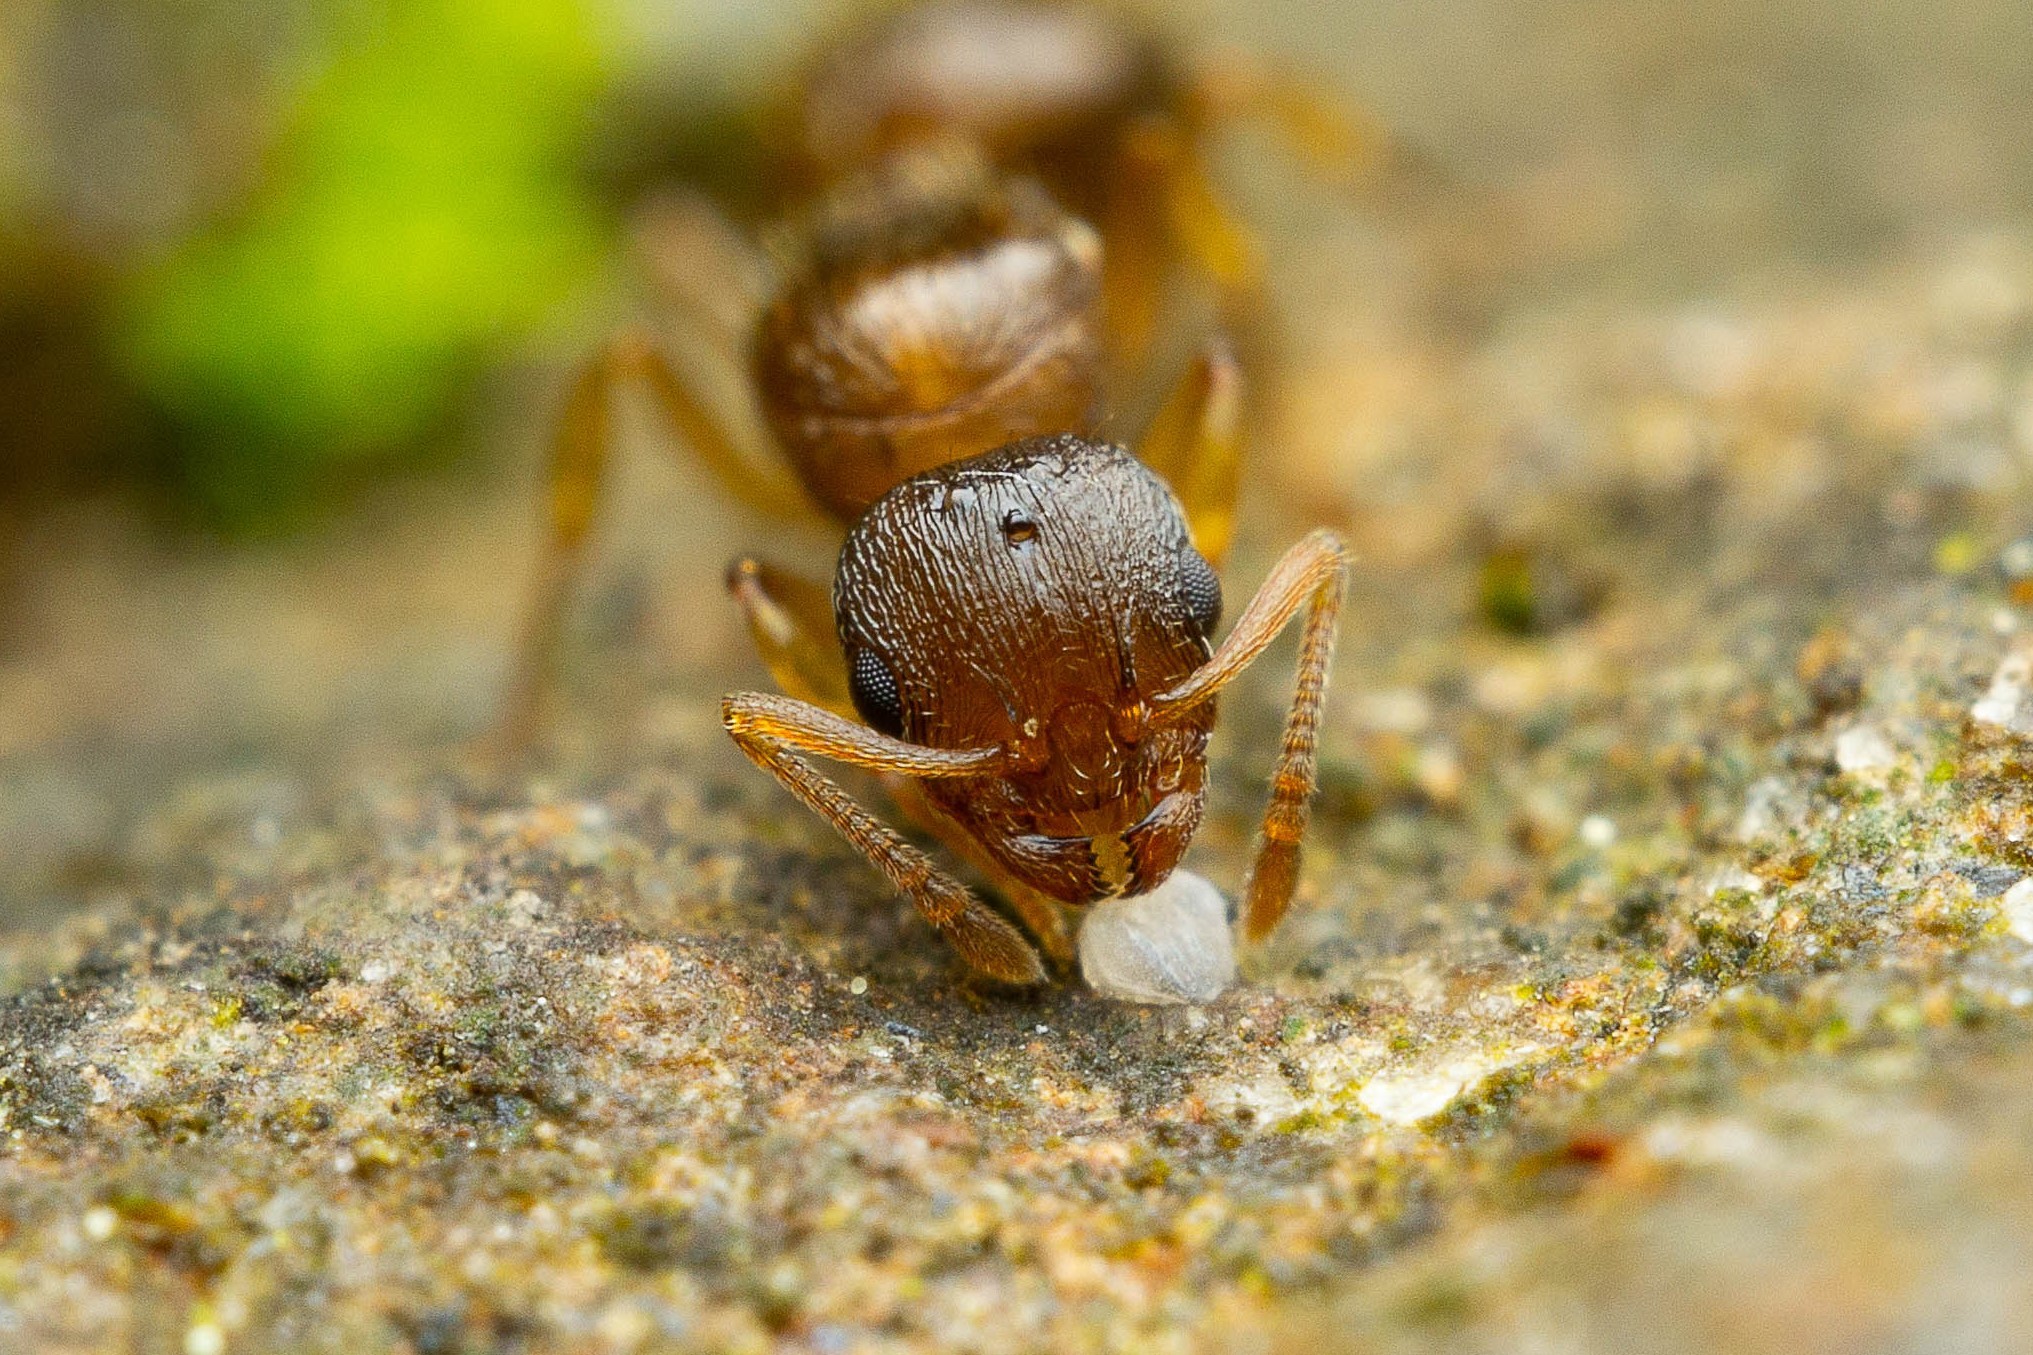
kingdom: Animalia
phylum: Arthropoda
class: Insecta
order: Hymenoptera
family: Formicidae
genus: Temnothorax
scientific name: Temnothorax
